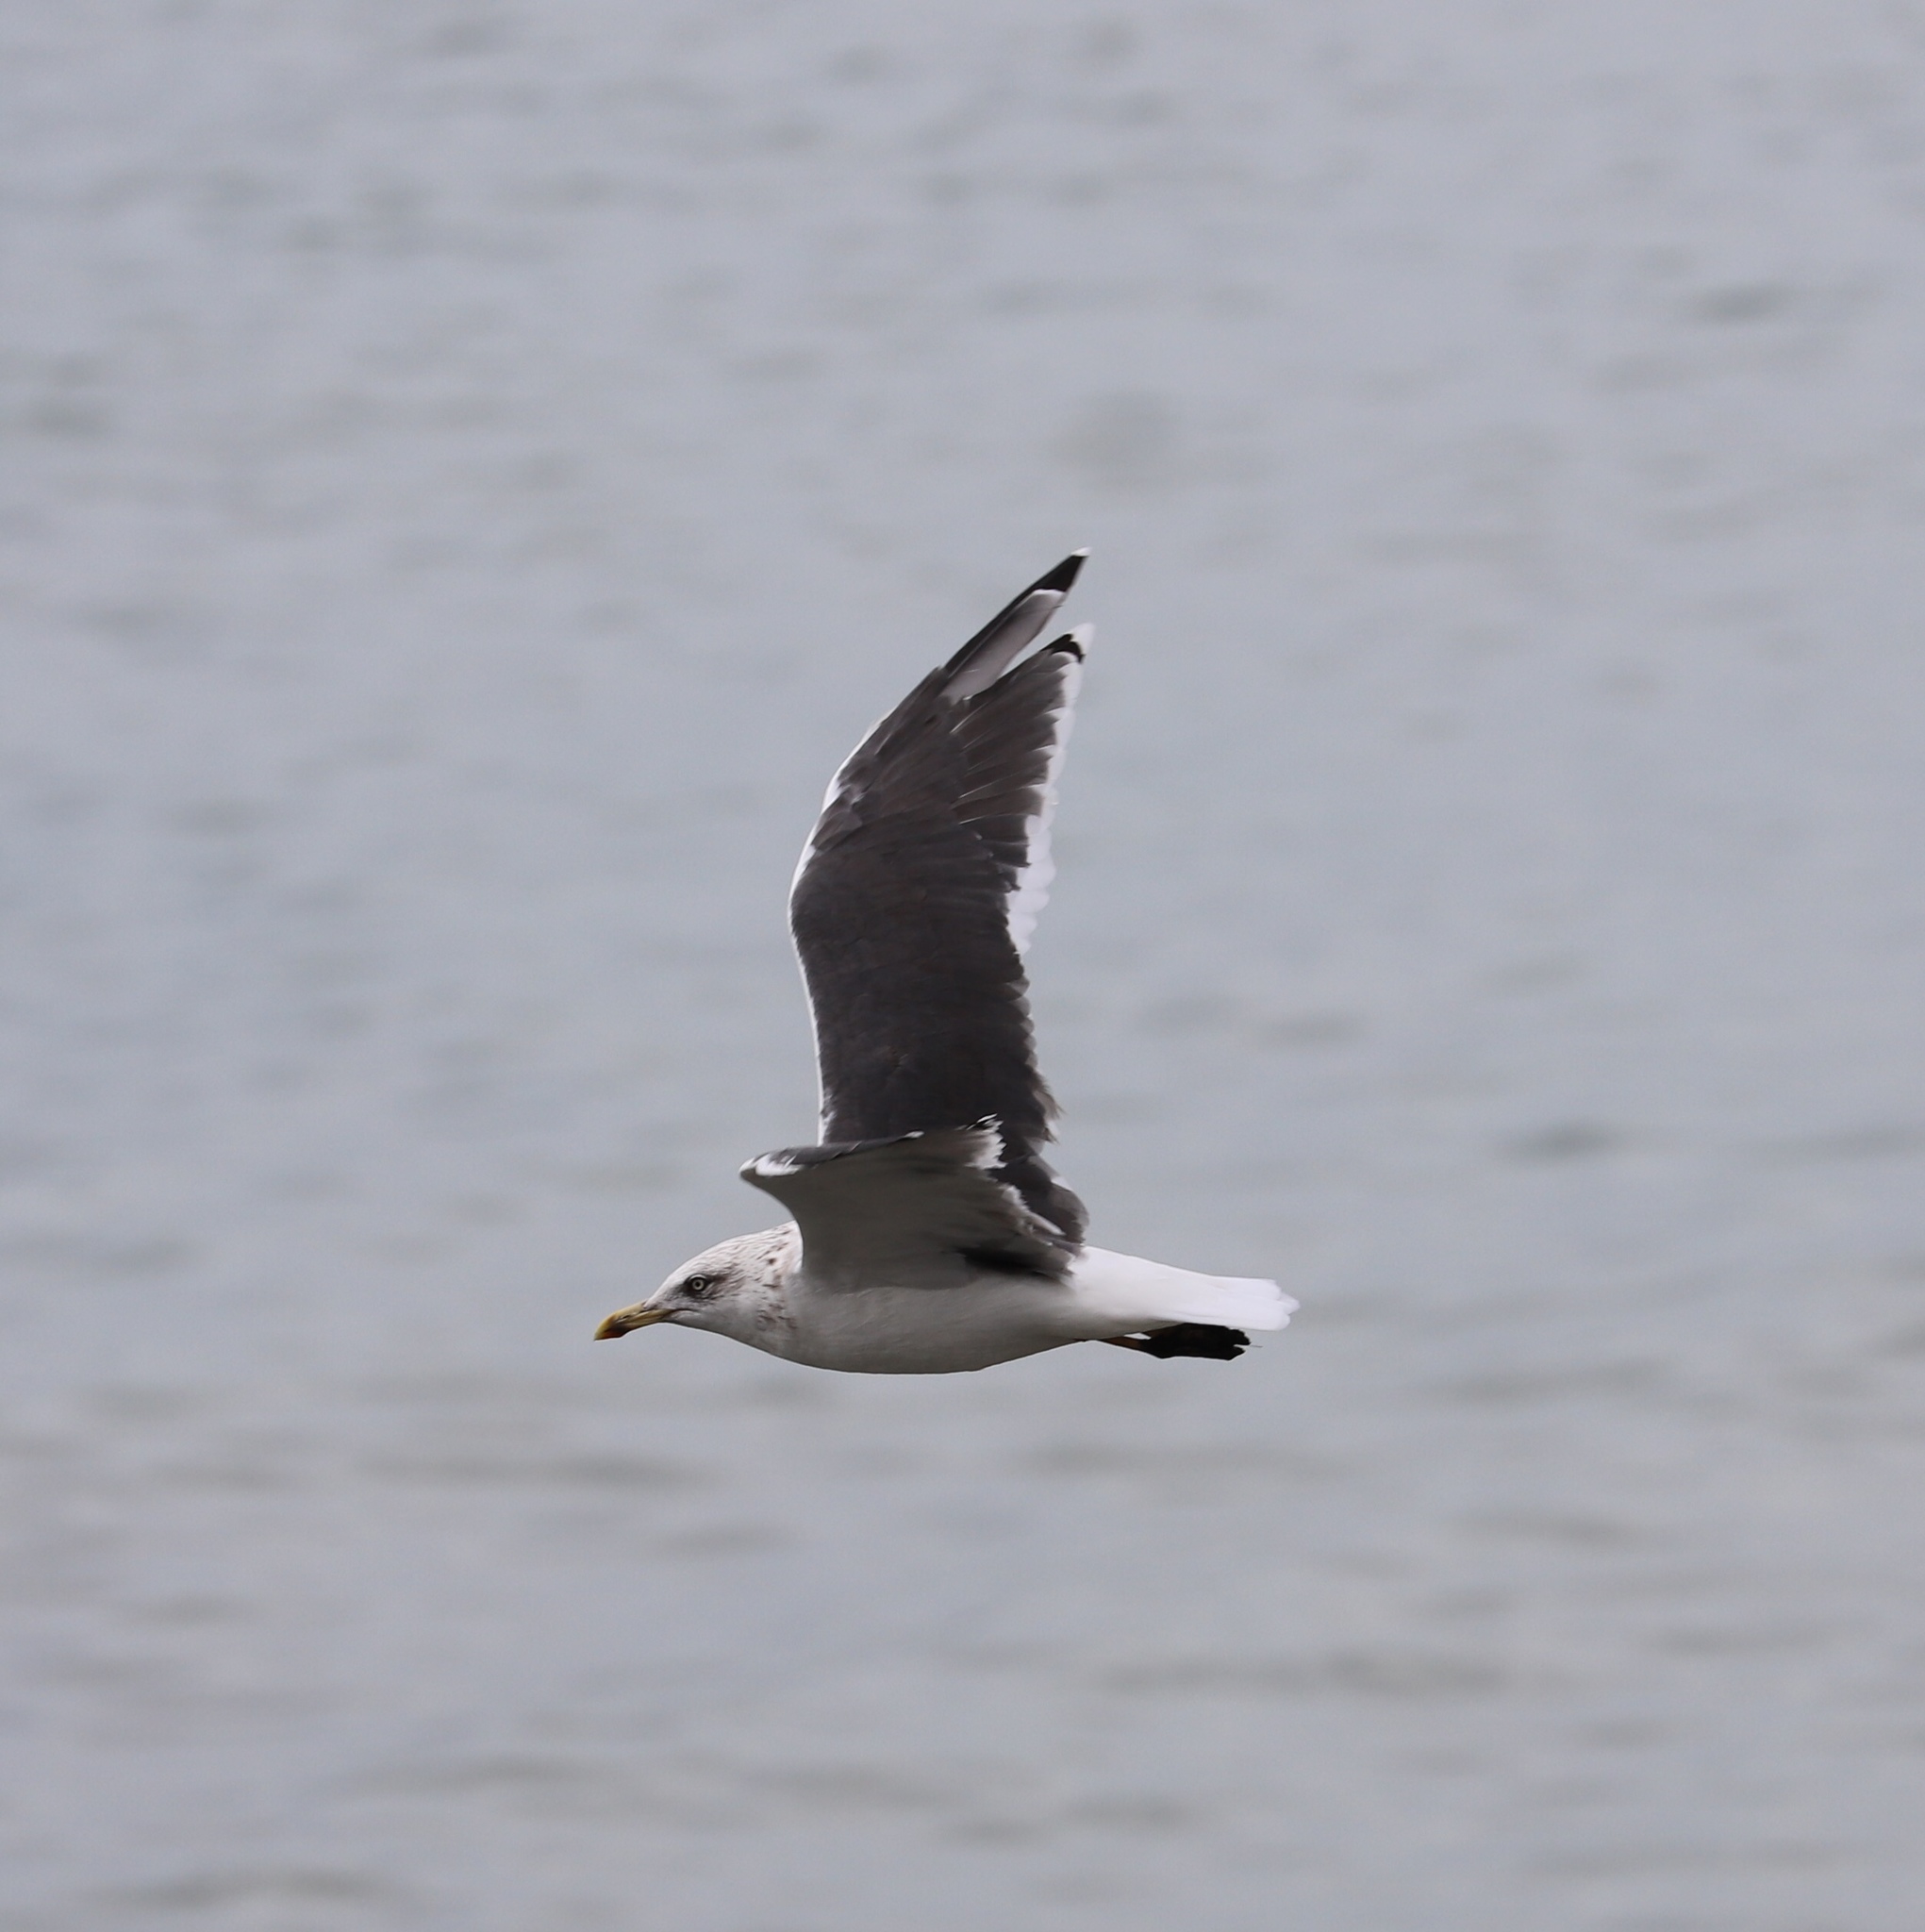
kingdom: Animalia
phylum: Chordata
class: Aves
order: Charadriiformes
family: Laridae
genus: Larus
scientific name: Larus fuscus
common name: Lesser black-backed gull
